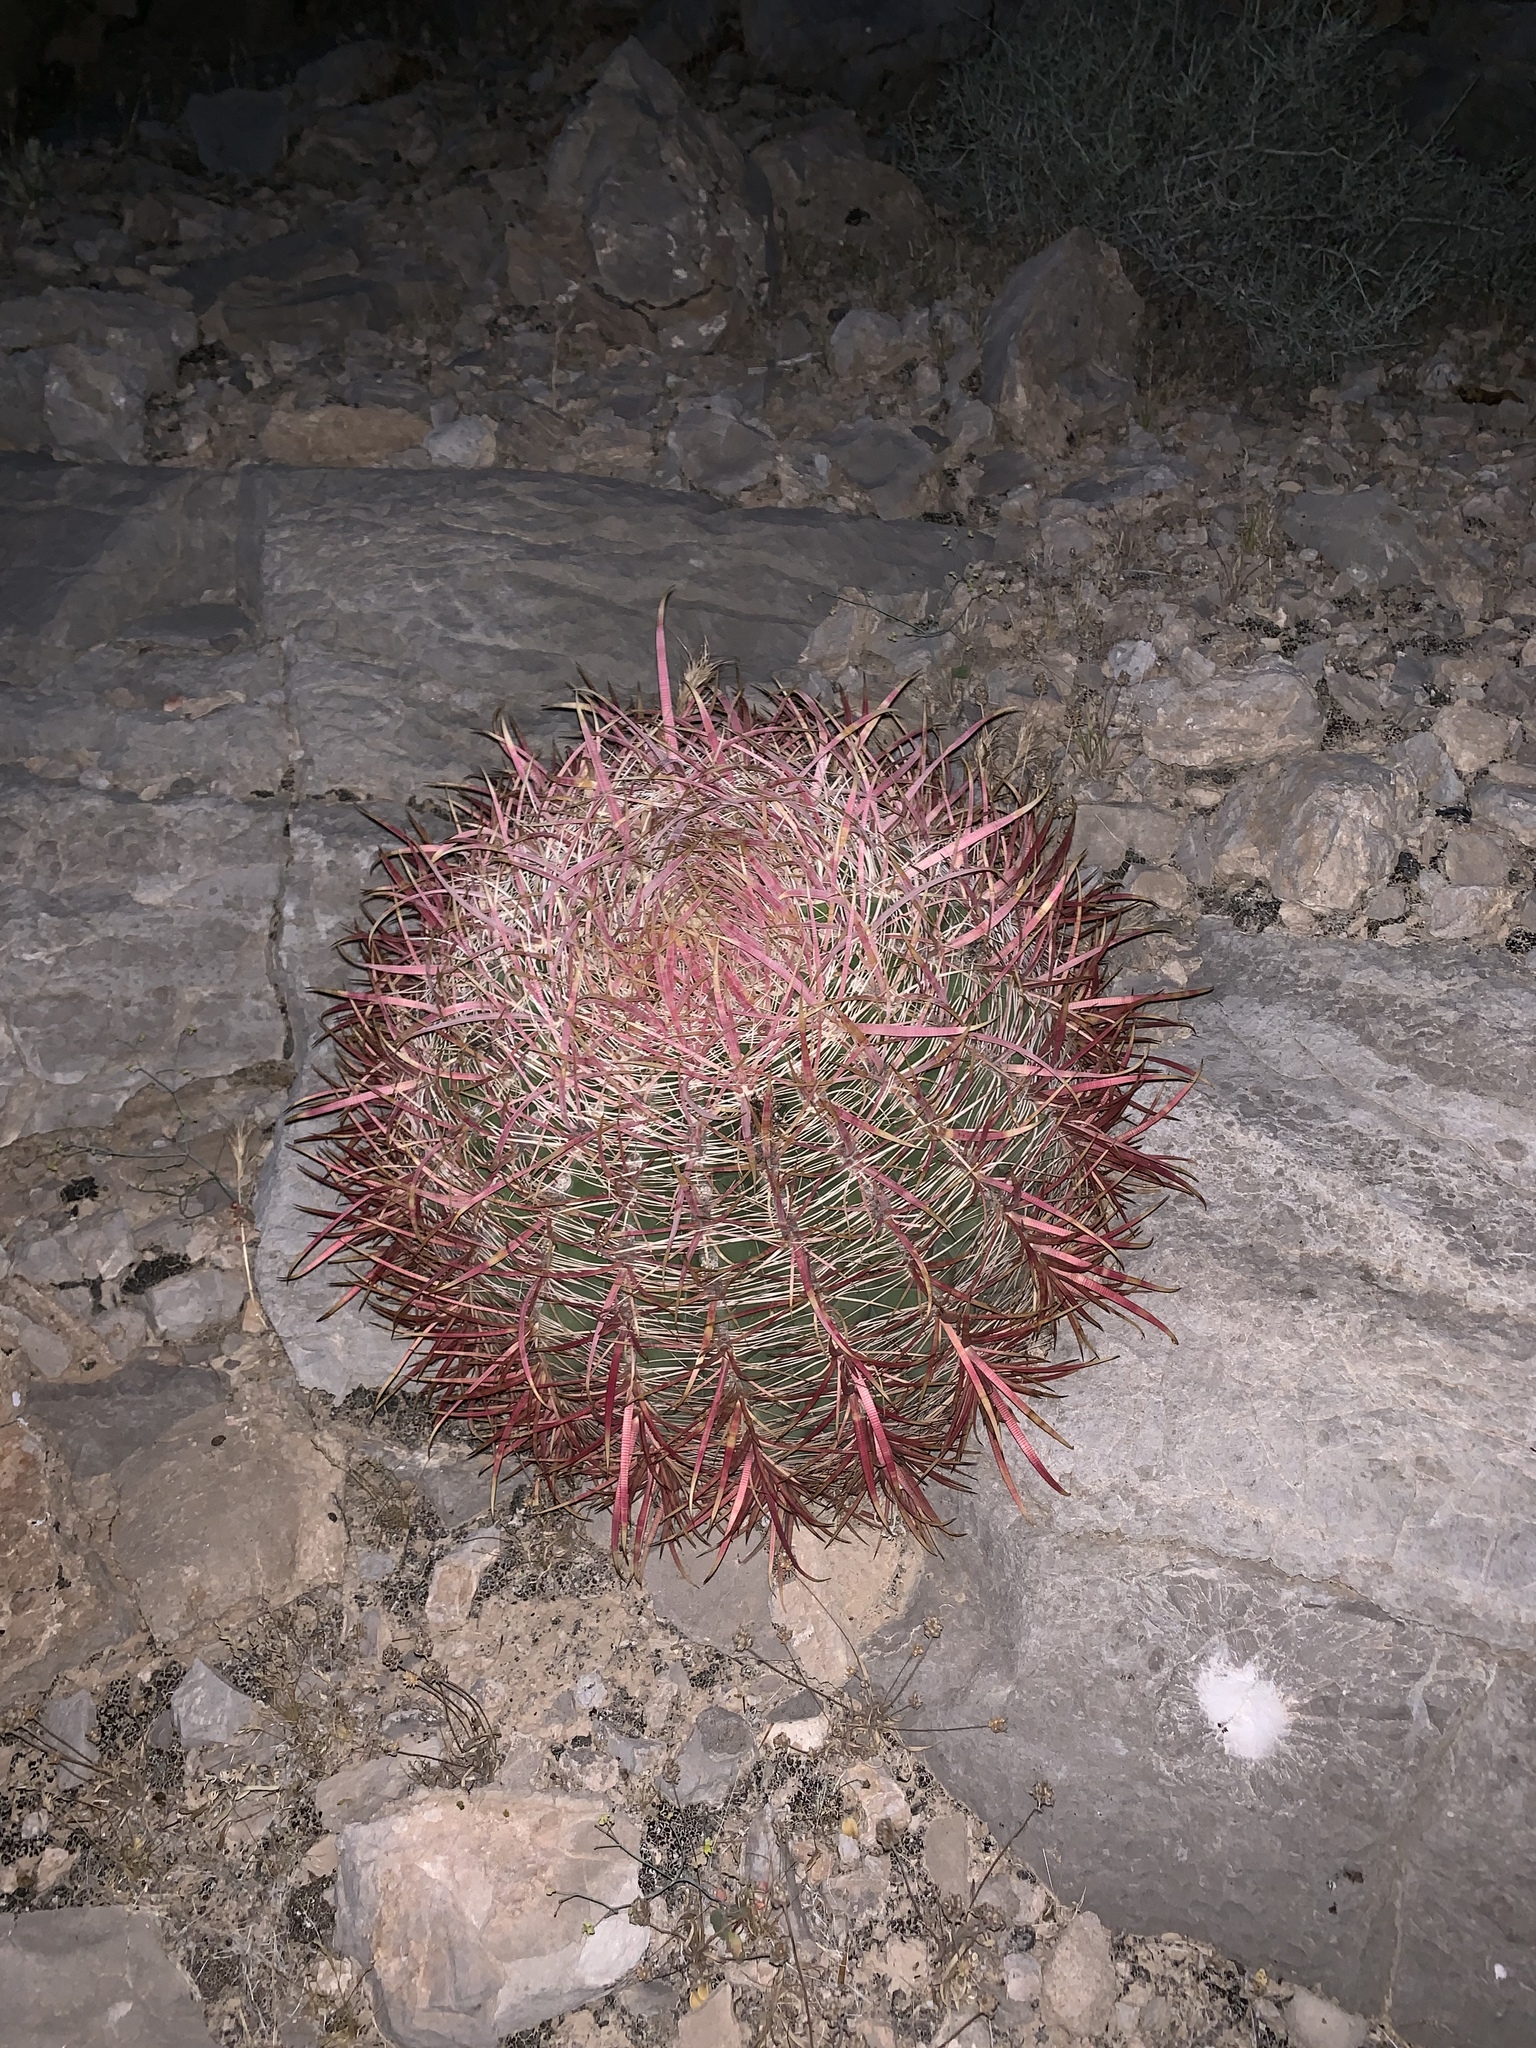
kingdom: Plantae
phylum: Tracheophyta
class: Magnoliopsida
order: Caryophyllales
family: Cactaceae
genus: Ferocactus
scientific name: Ferocactus cylindraceus
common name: California barrel cactus
